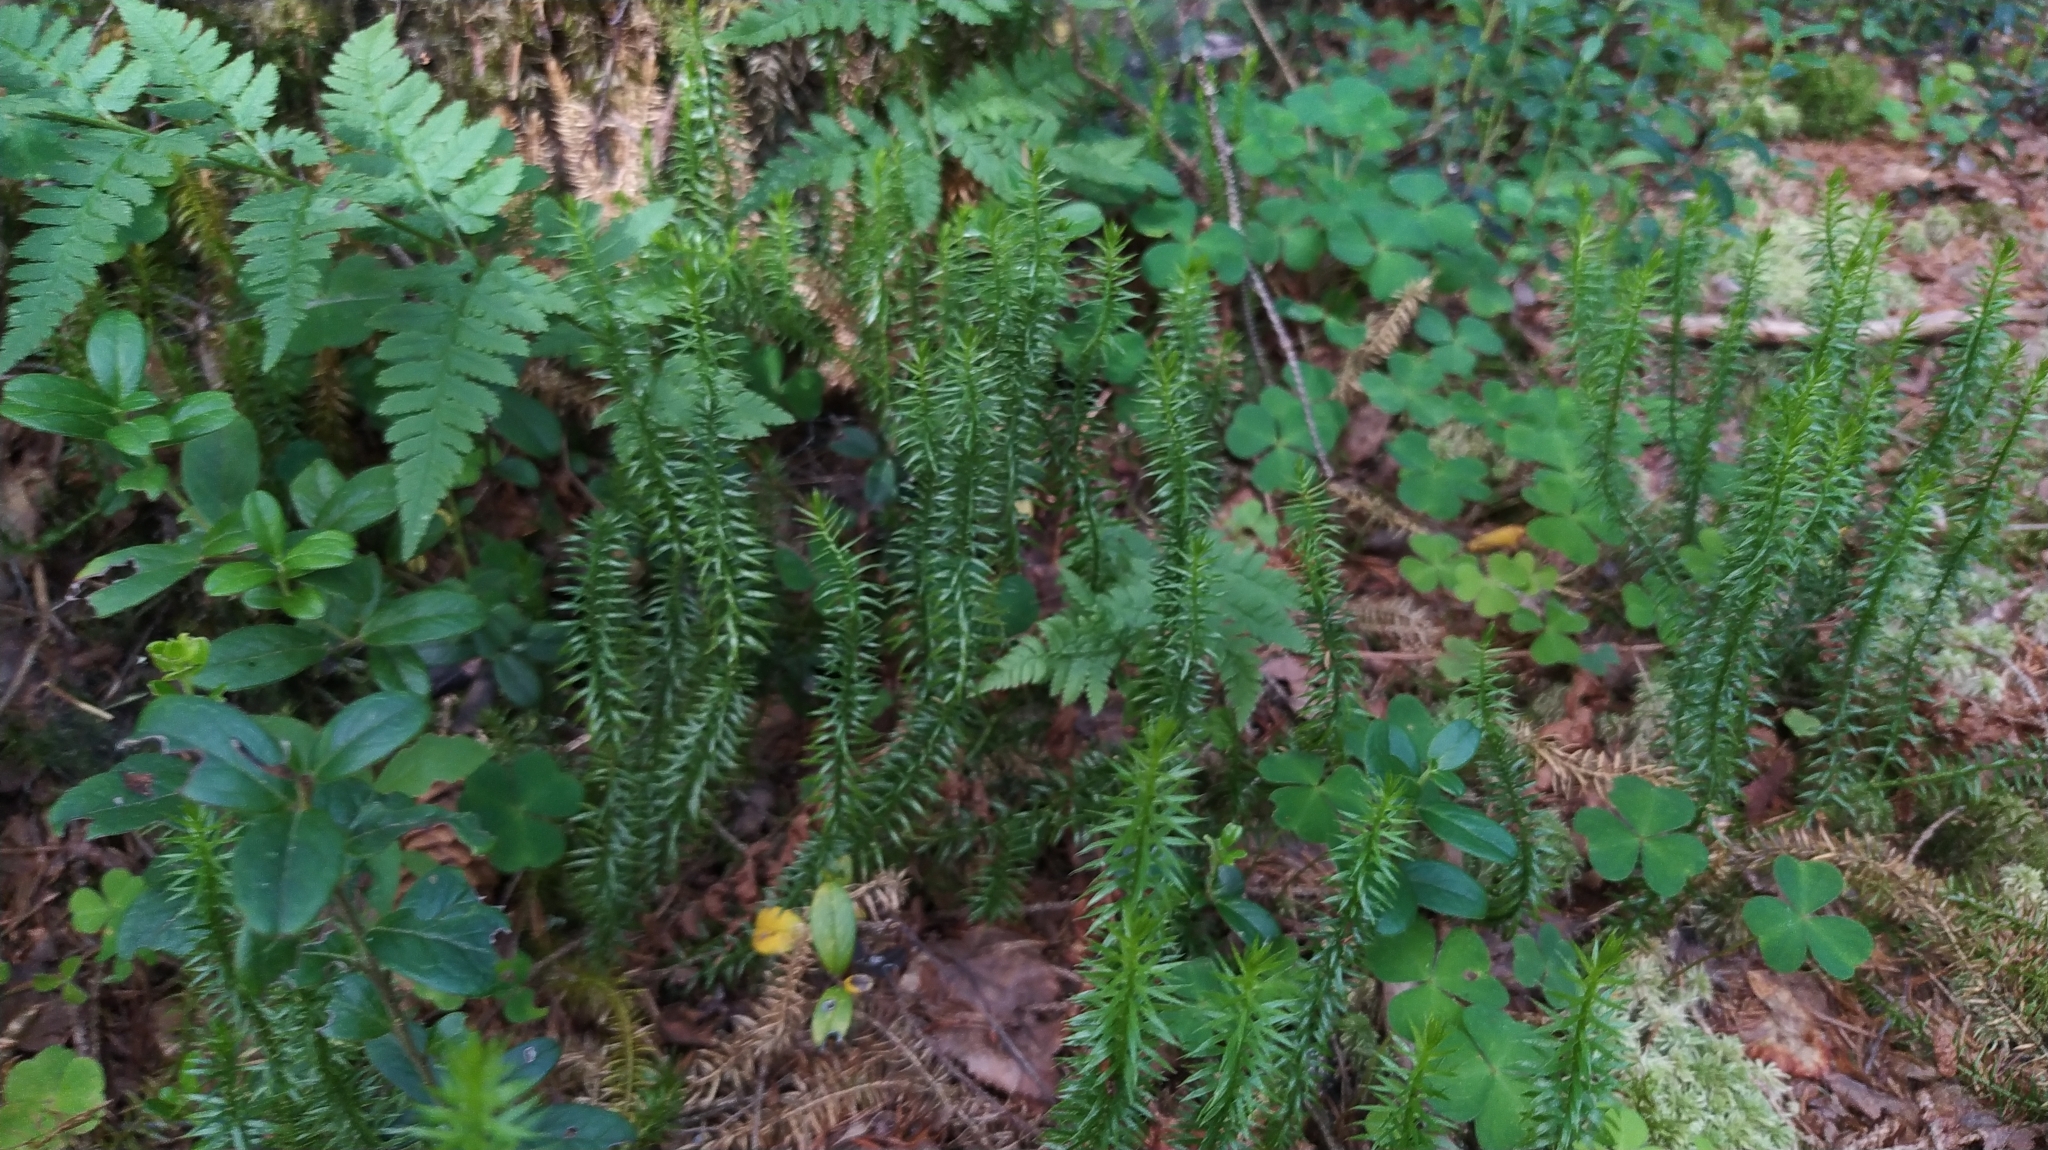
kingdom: Plantae
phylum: Tracheophyta
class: Lycopodiopsida
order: Lycopodiales
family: Lycopodiaceae
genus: Spinulum
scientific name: Spinulum annotinum
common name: Interrupted club-moss
